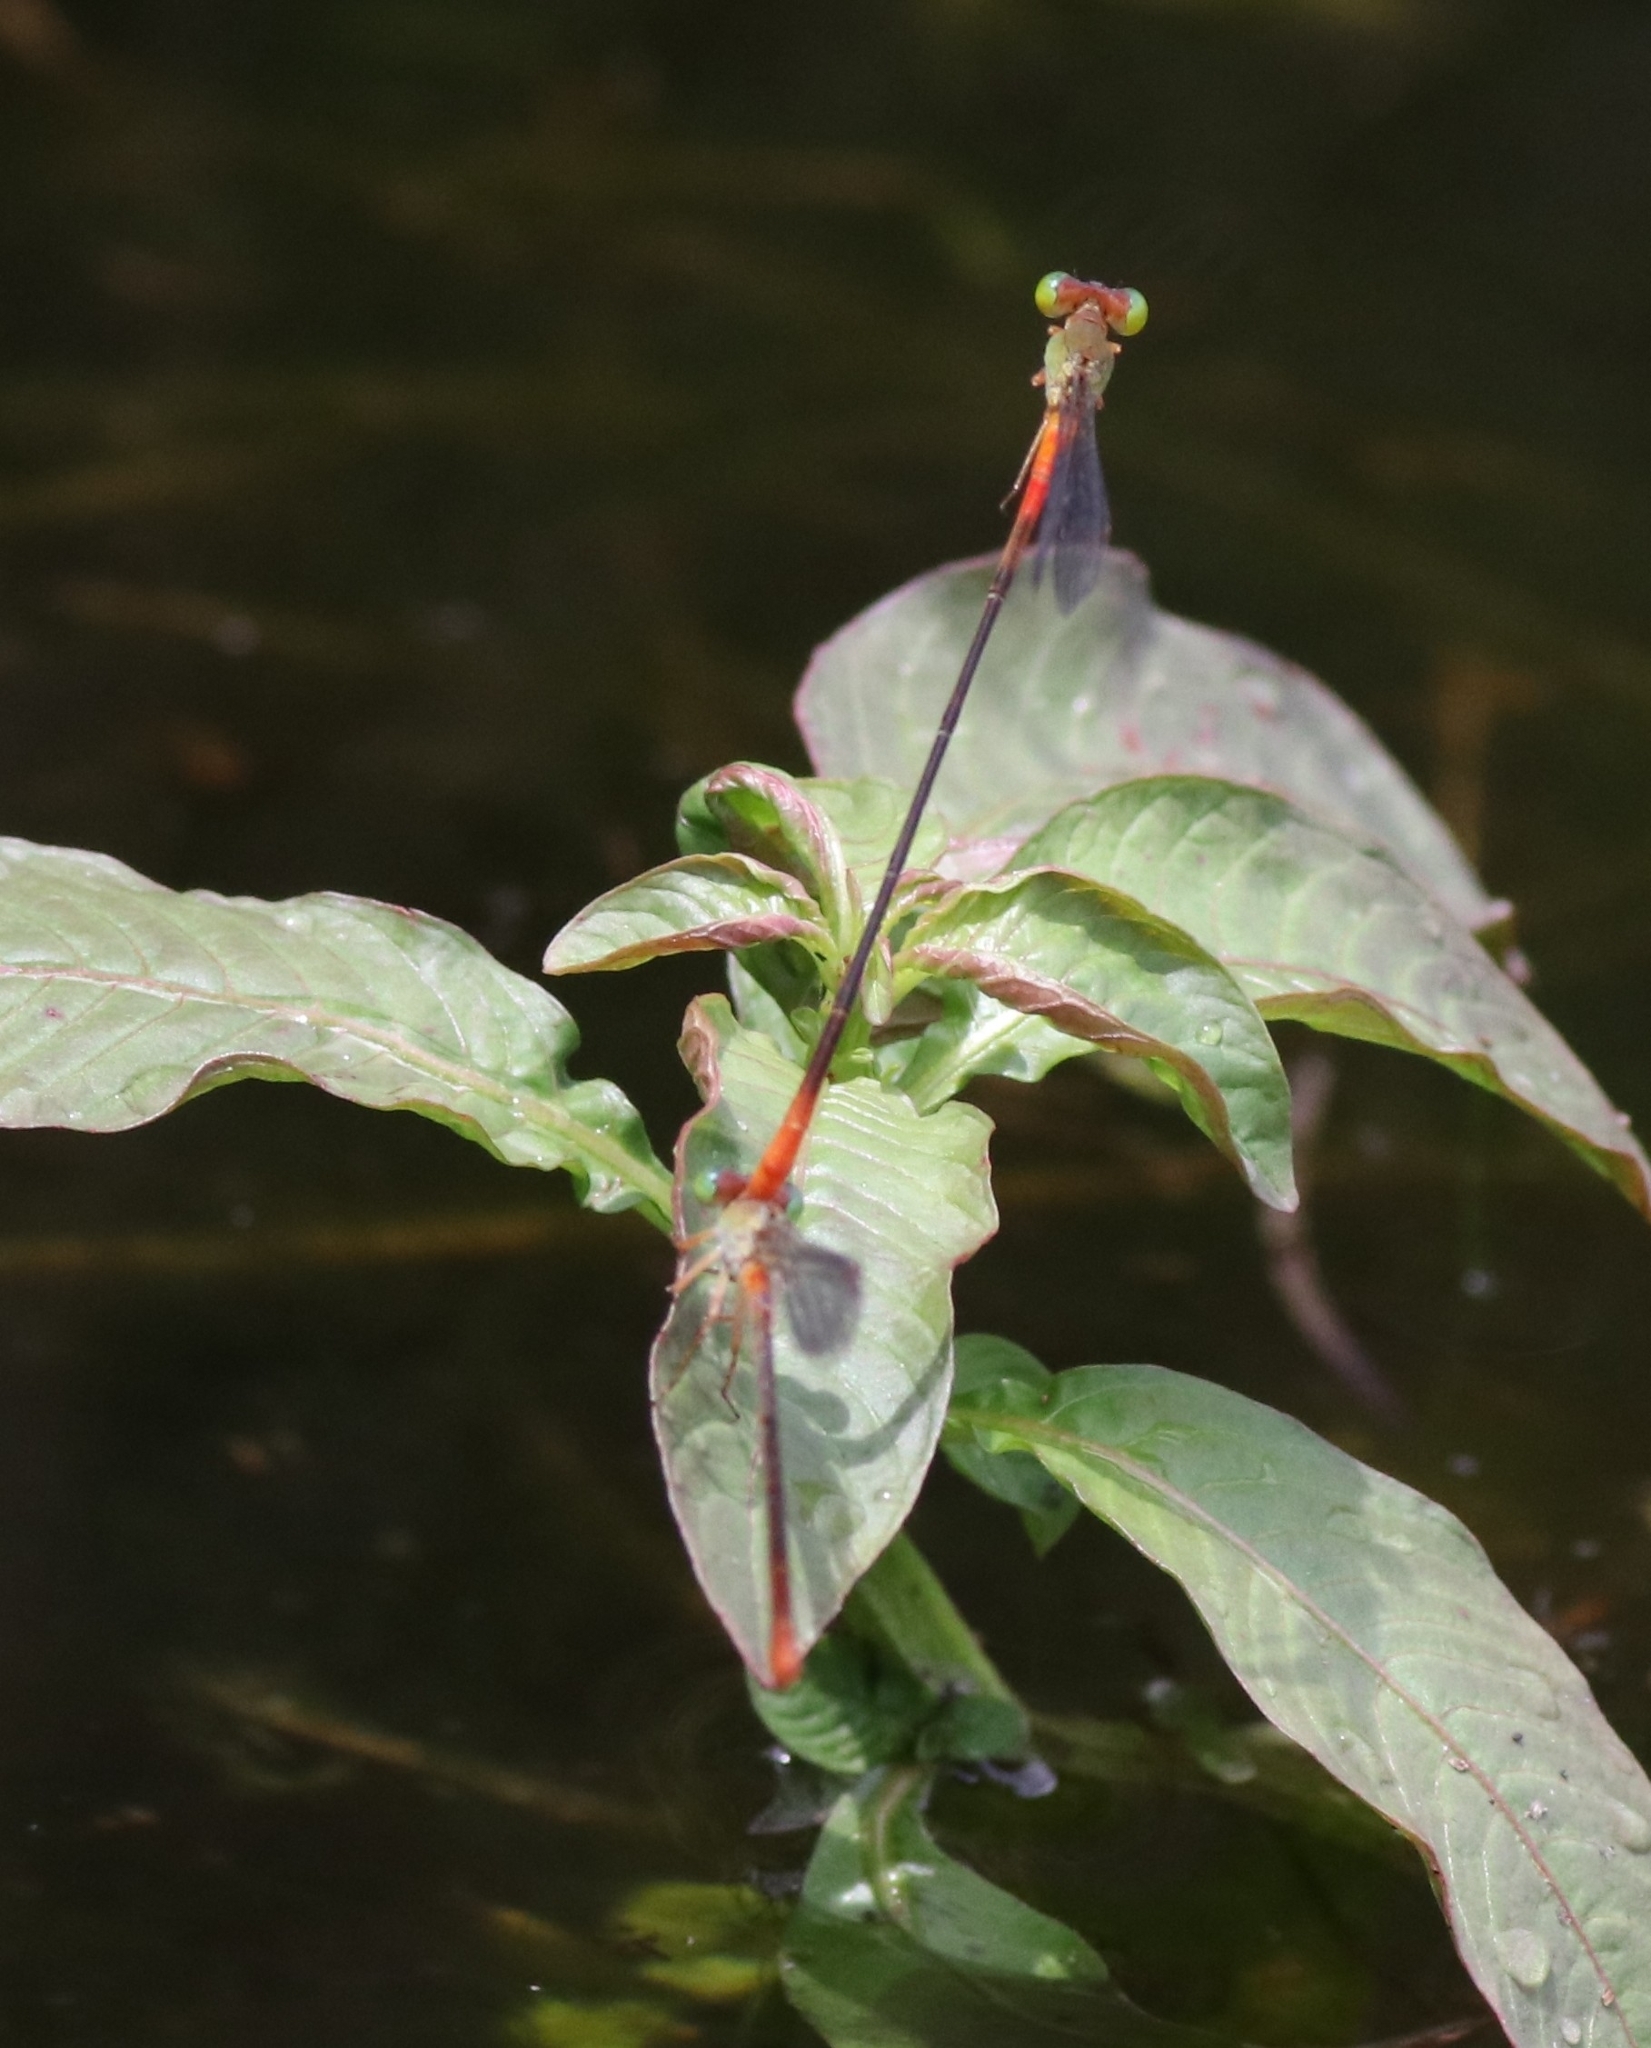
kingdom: Animalia
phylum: Arthropoda
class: Insecta
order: Odonata
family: Coenagrionidae
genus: Ceriagrion
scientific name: Ceriagrion cerinorubellum
